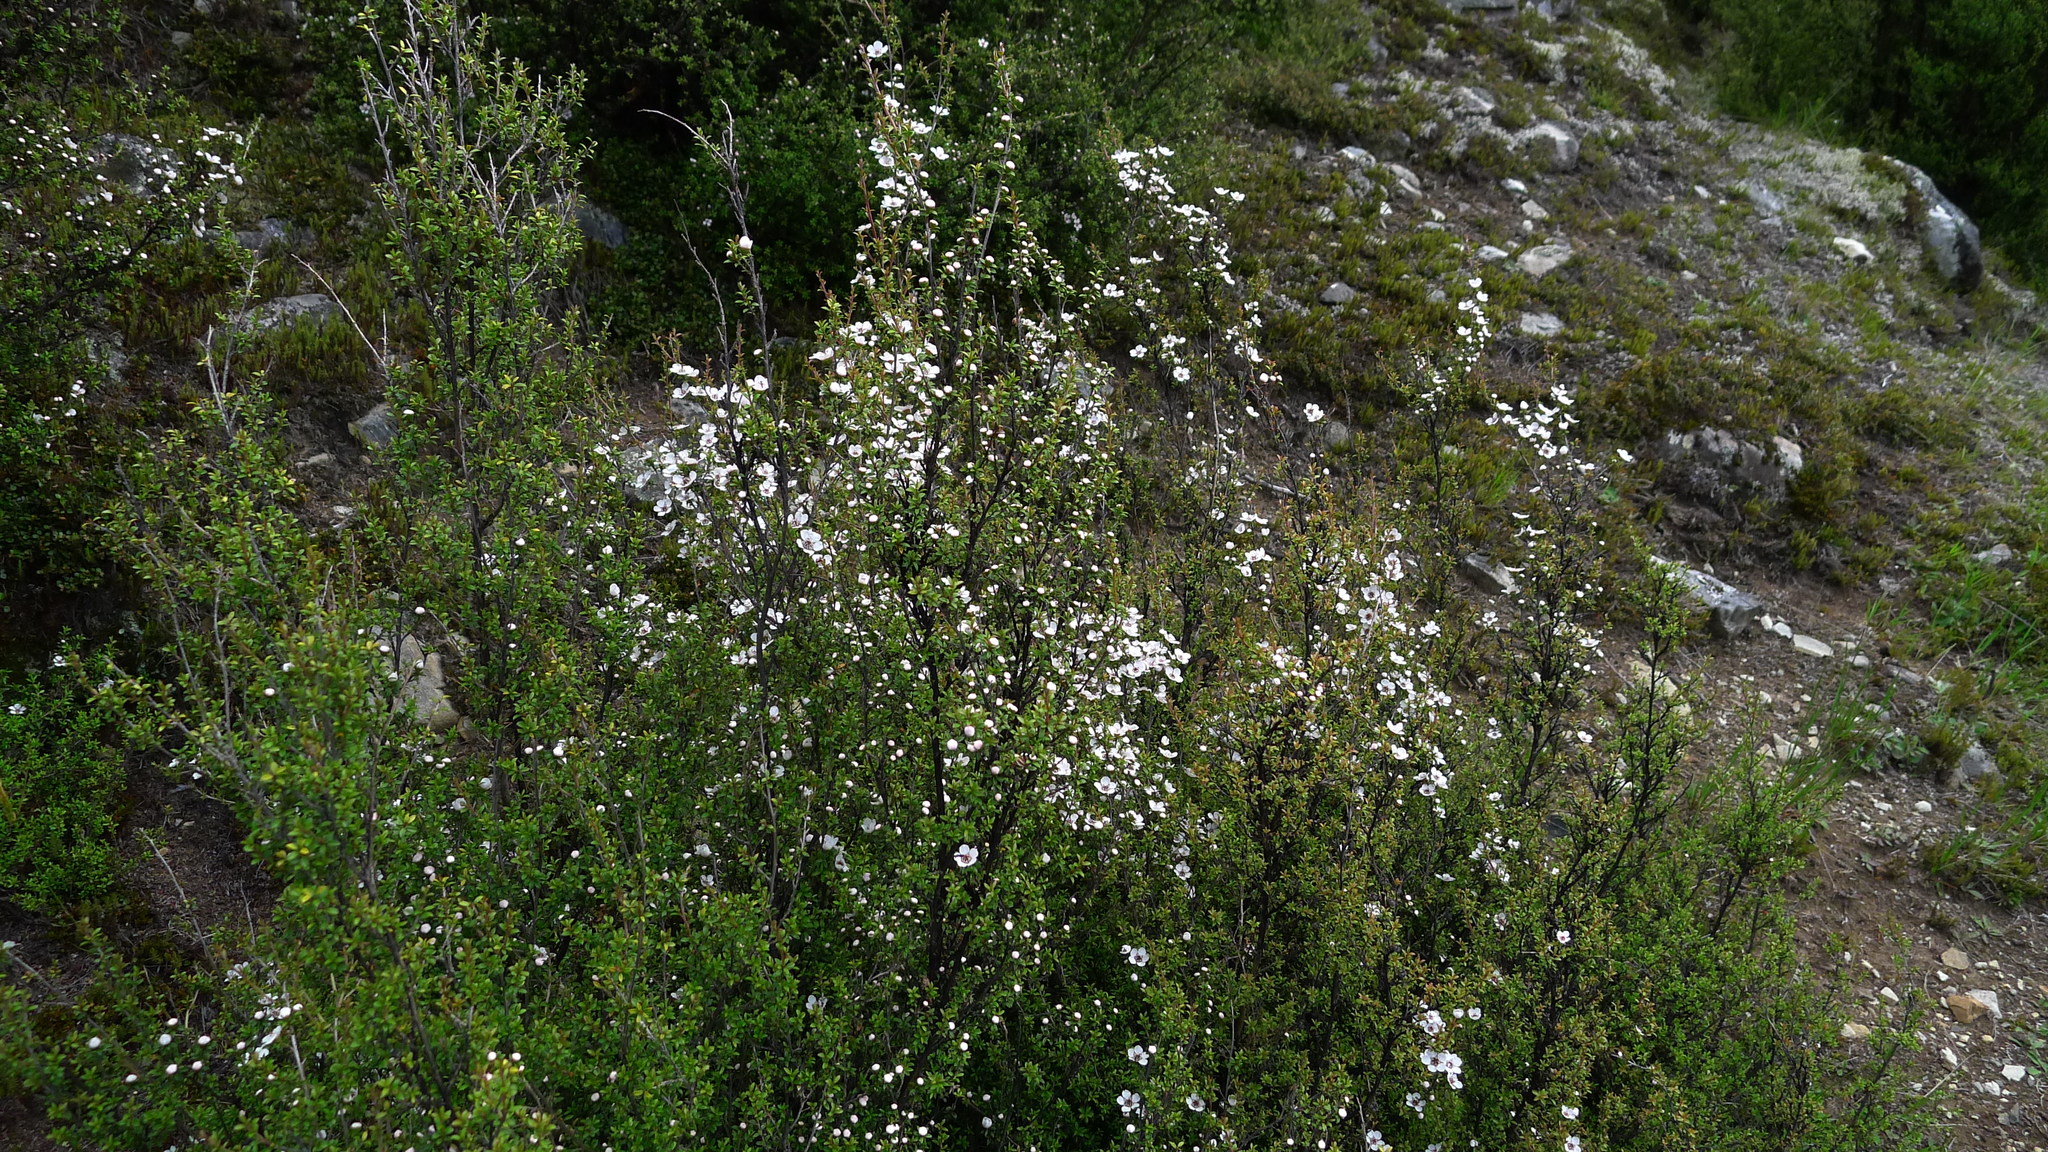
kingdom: Plantae
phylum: Tracheophyta
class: Magnoliopsida
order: Myrtales
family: Myrtaceae
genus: Leptospermum
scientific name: Leptospermum scoparium
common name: Broom tea-tree
